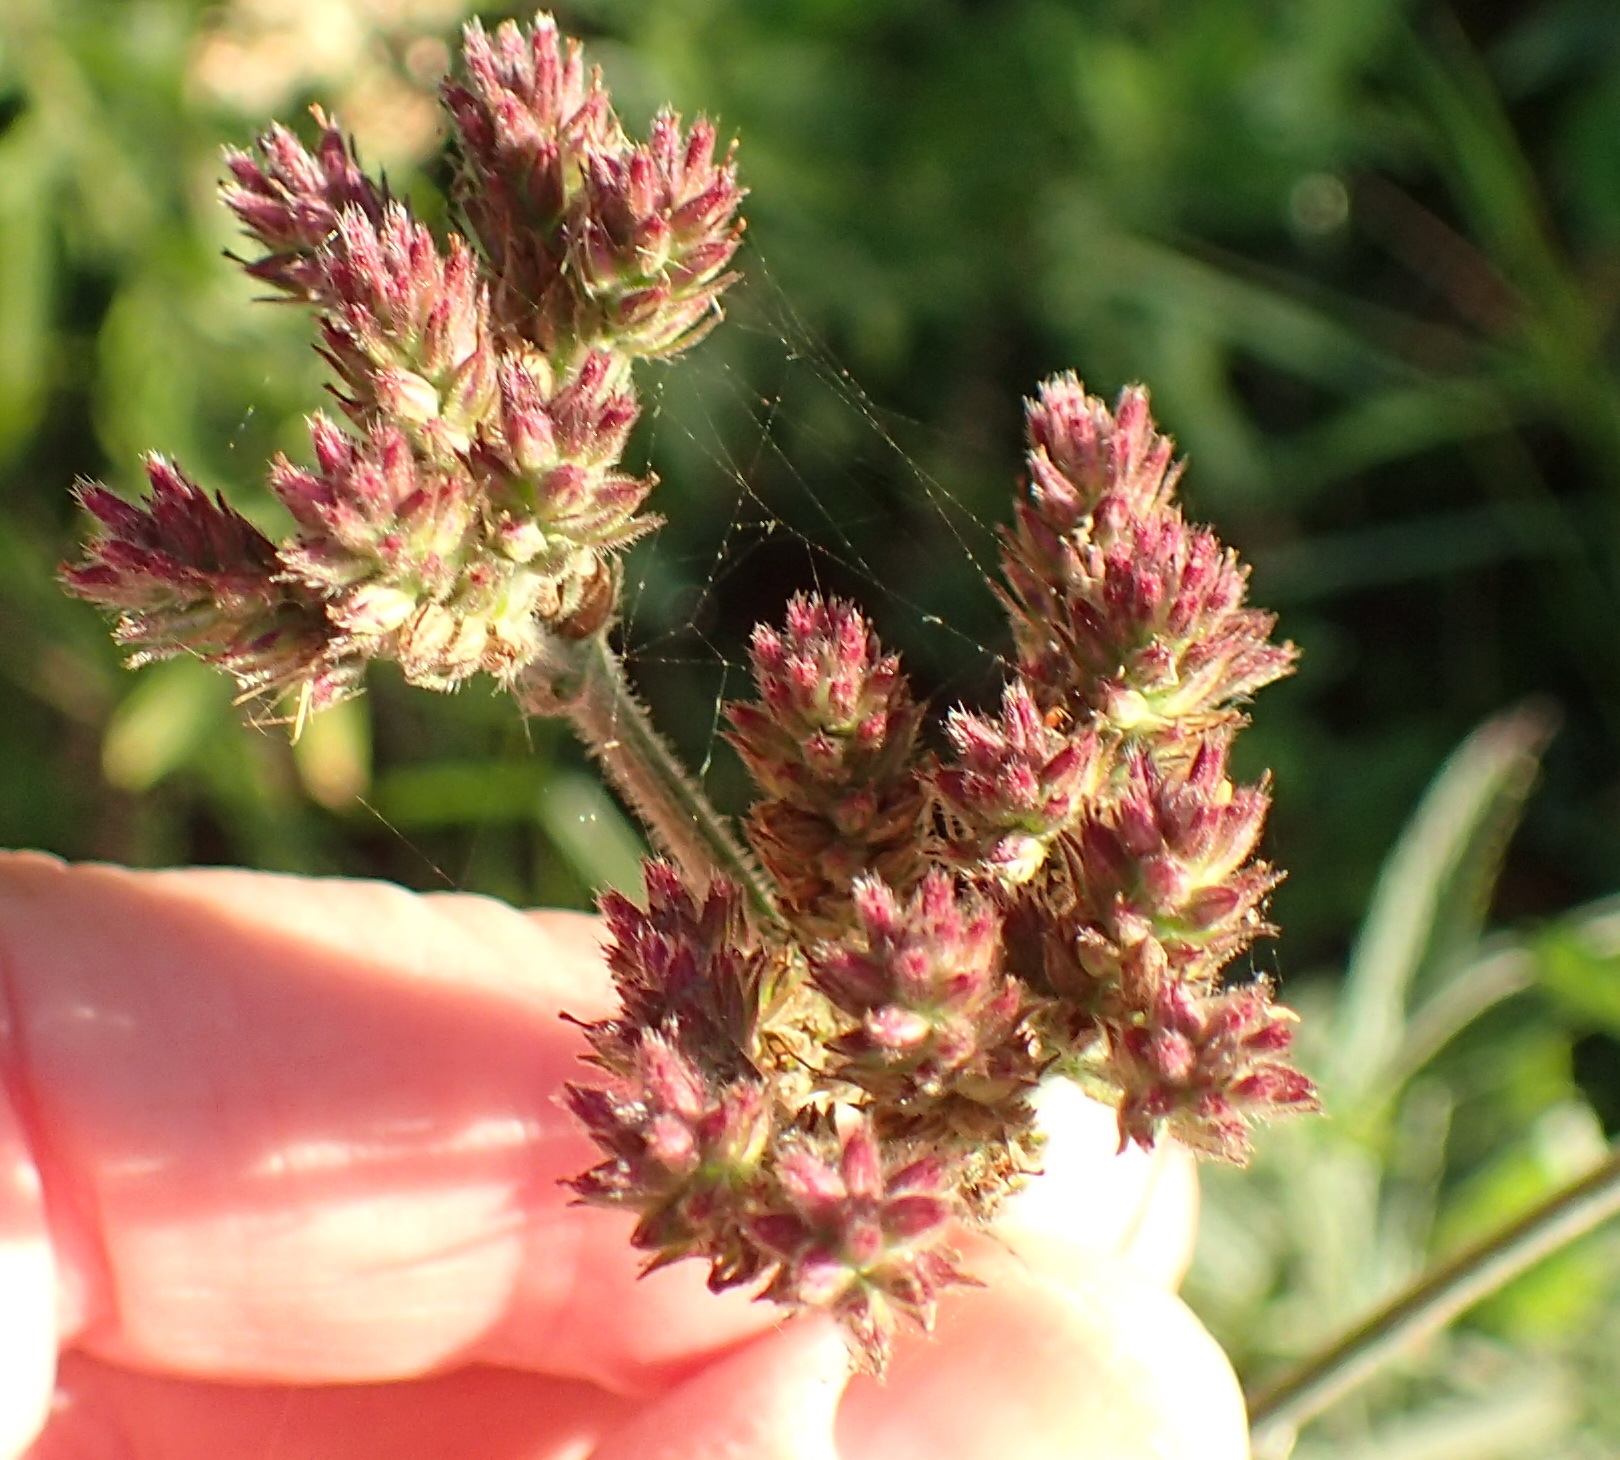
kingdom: Plantae
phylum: Tracheophyta
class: Magnoliopsida
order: Lamiales
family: Verbenaceae
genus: Verbena
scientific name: Verbena bonariensis
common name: Purpletop vervain
